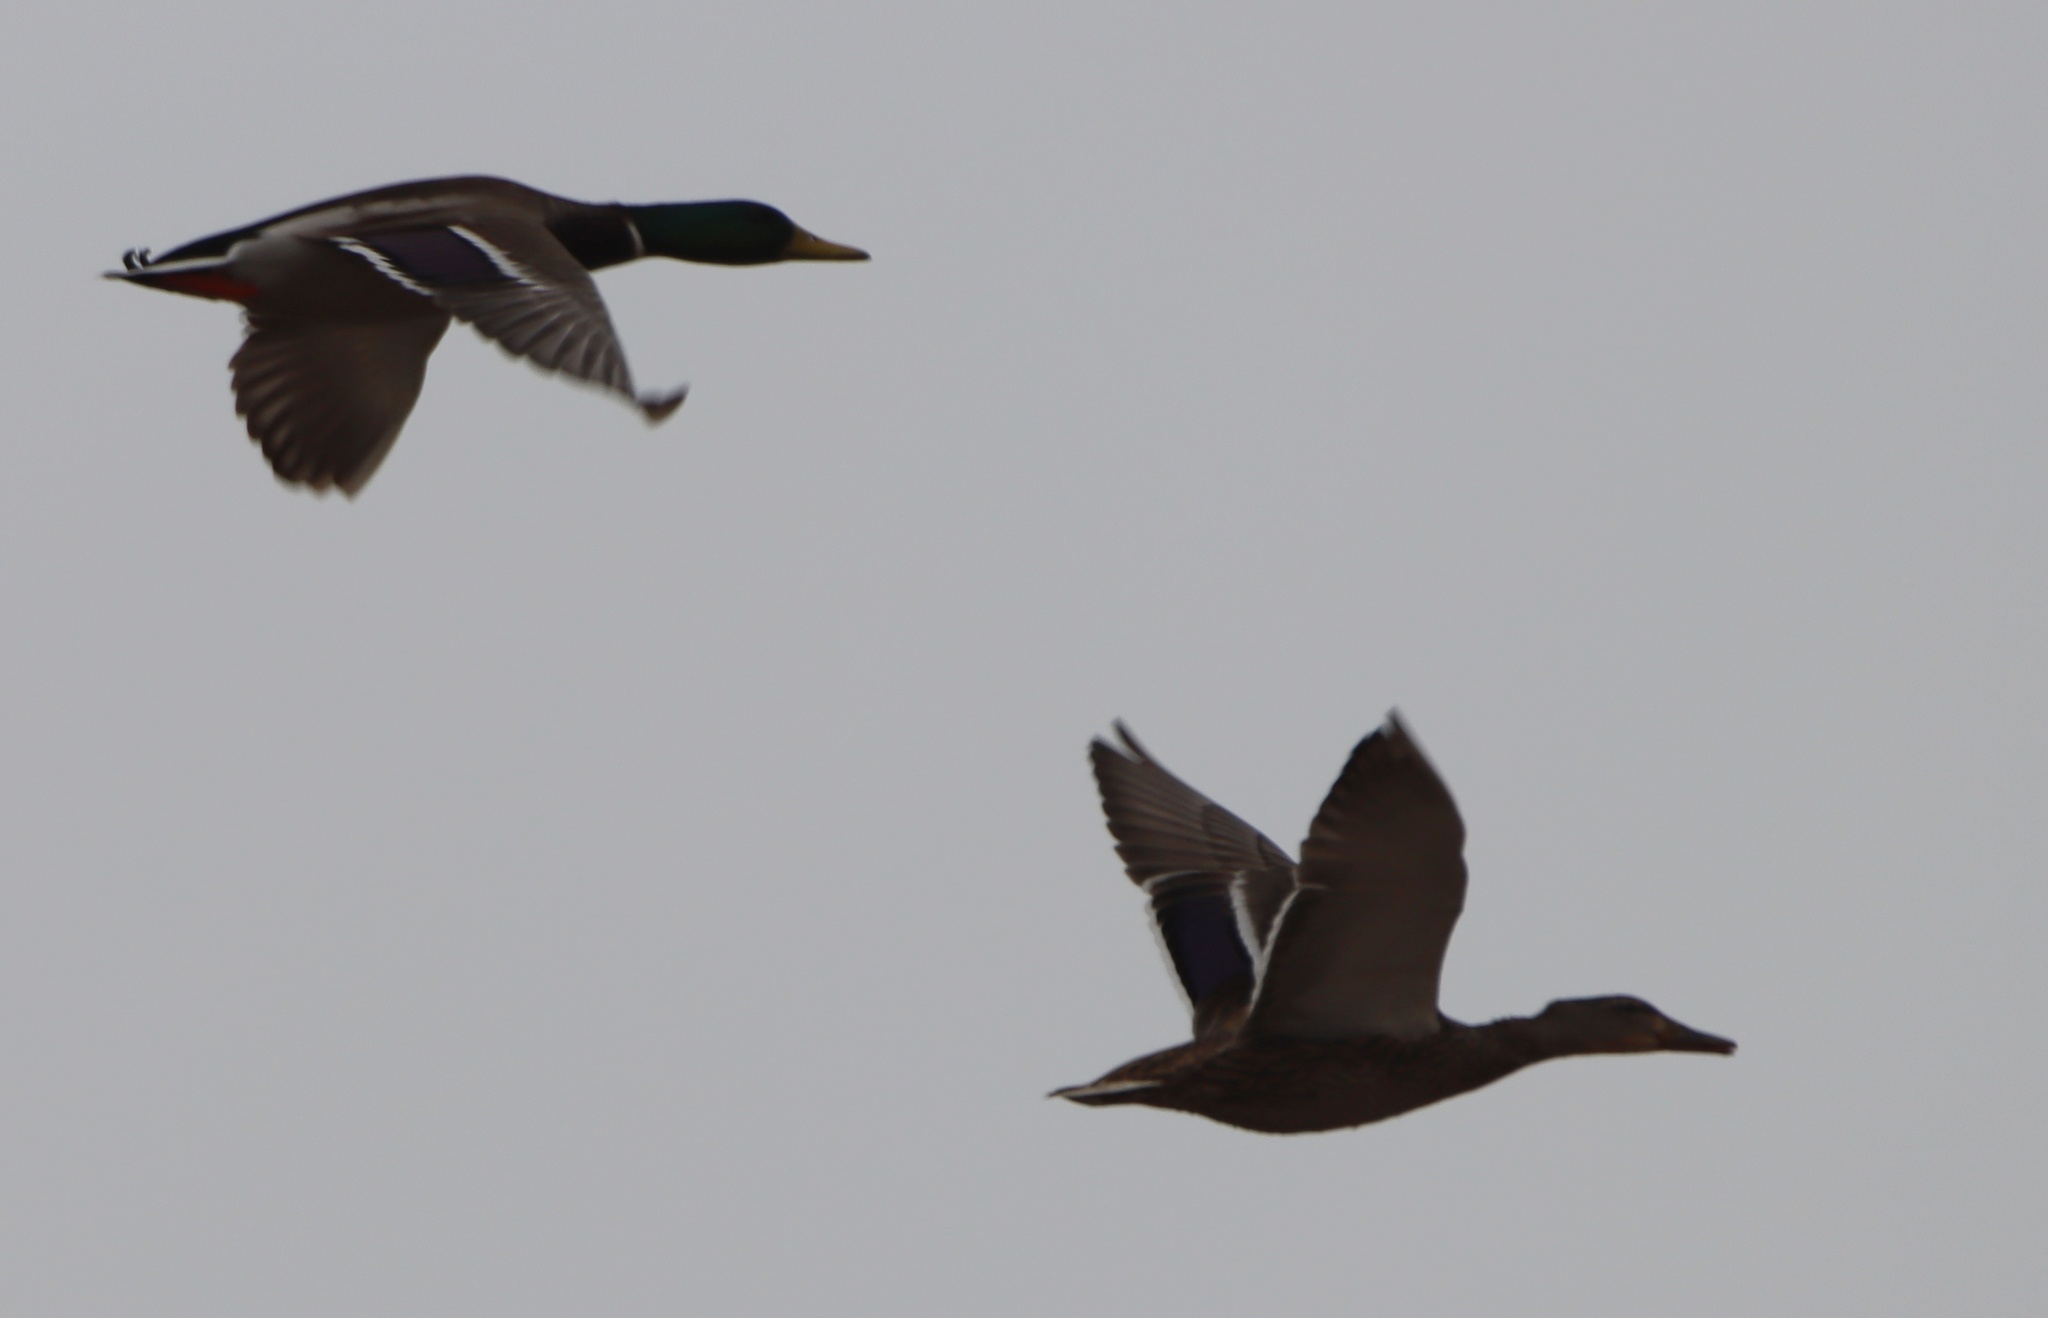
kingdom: Animalia
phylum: Chordata
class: Aves
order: Anseriformes
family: Anatidae
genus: Anas
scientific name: Anas platyrhynchos
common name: Mallard
